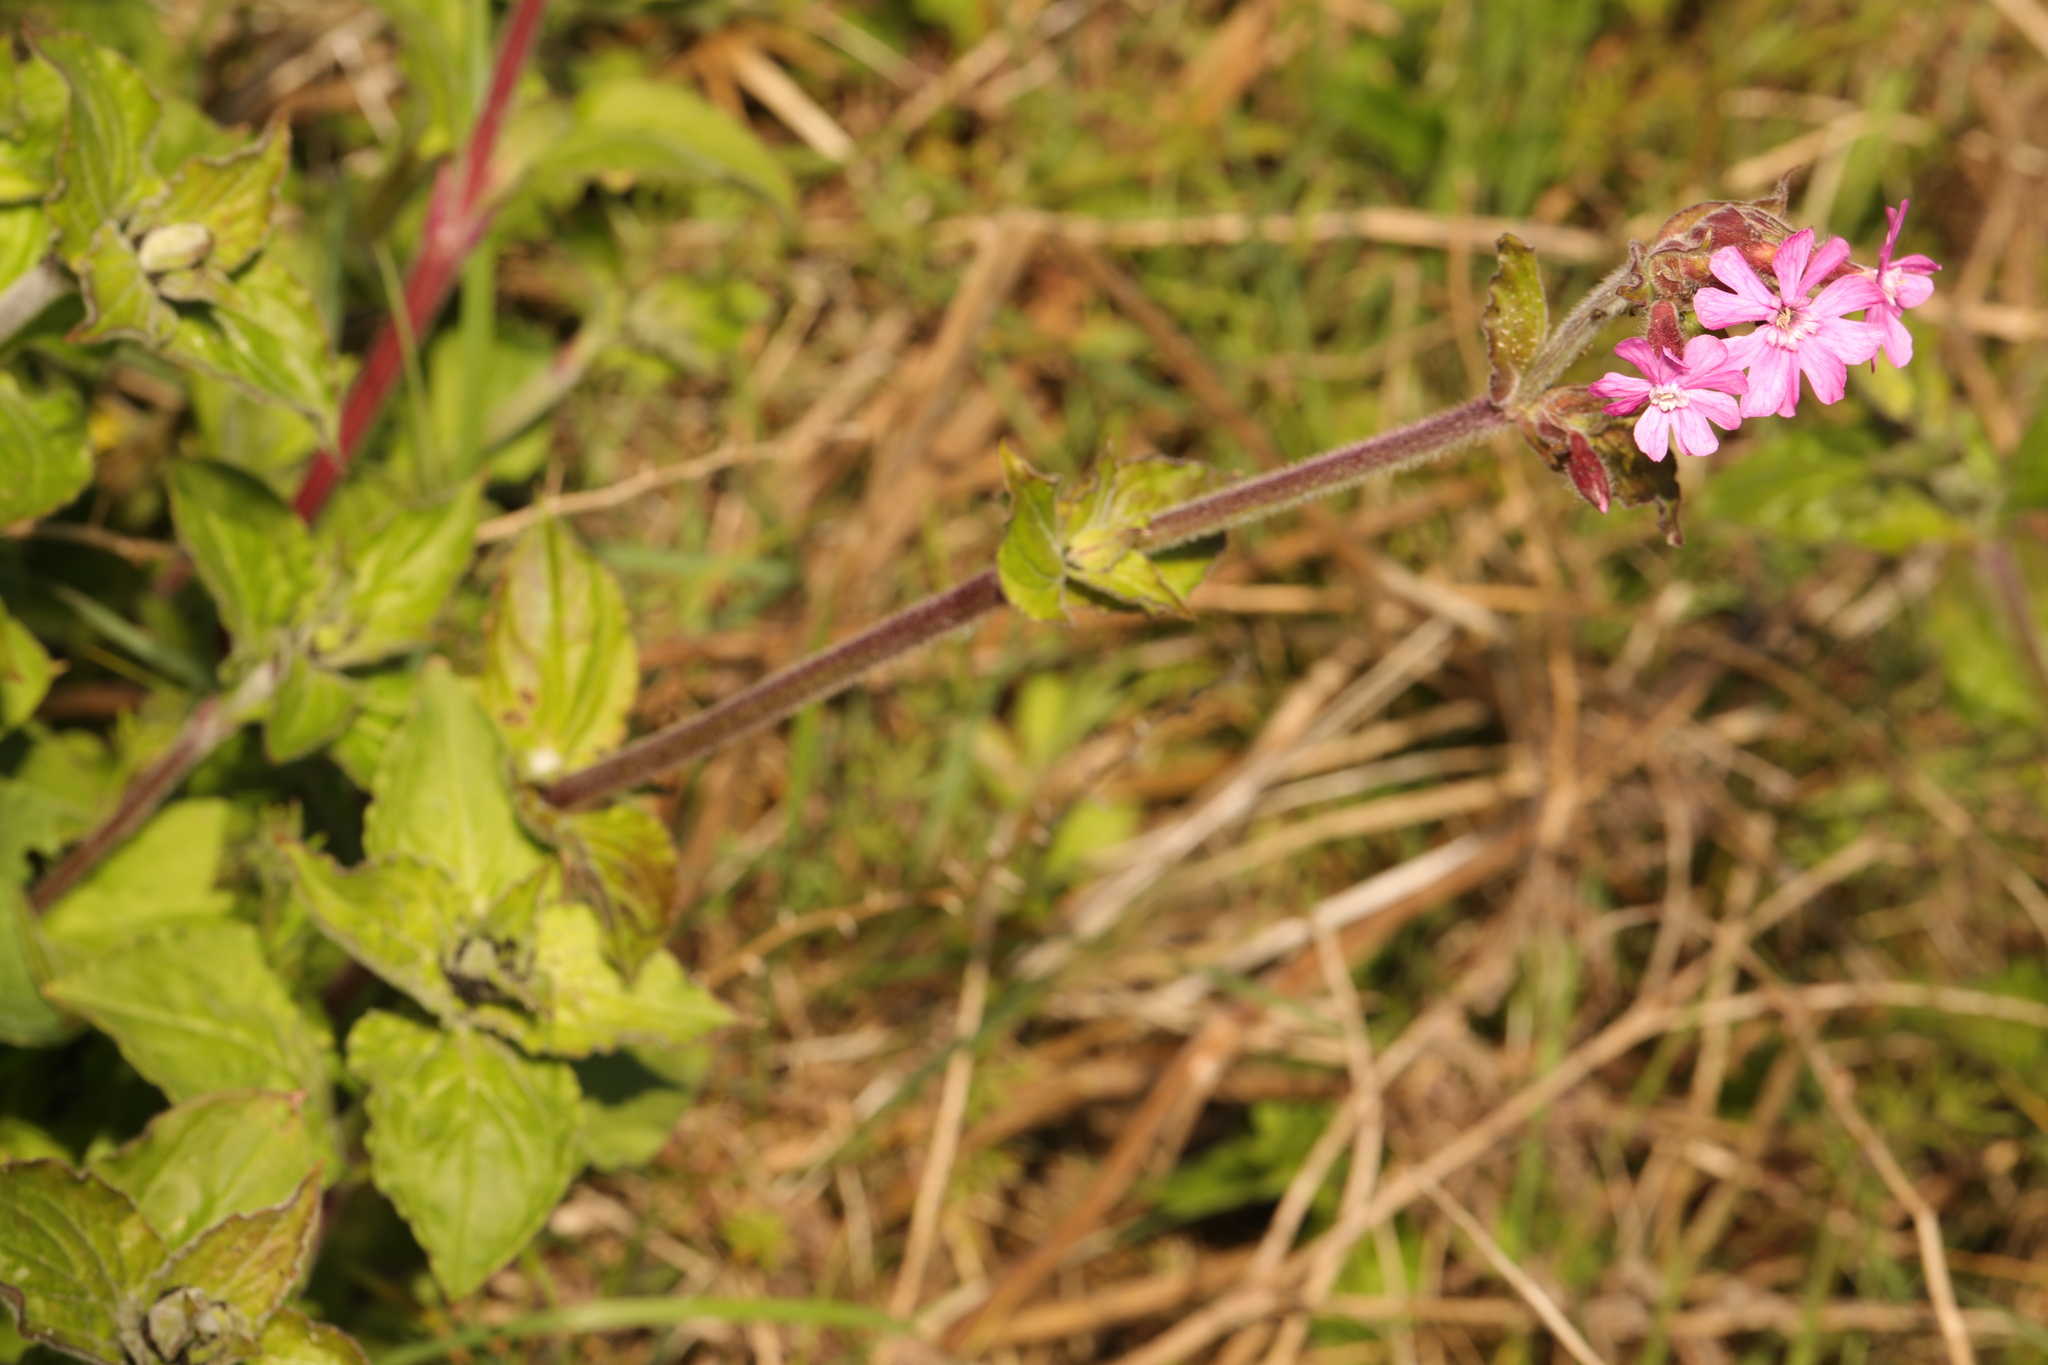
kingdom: Plantae
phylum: Tracheophyta
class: Magnoliopsida
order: Caryophyllales
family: Caryophyllaceae
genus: Silene
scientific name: Silene dioica
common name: Red campion
